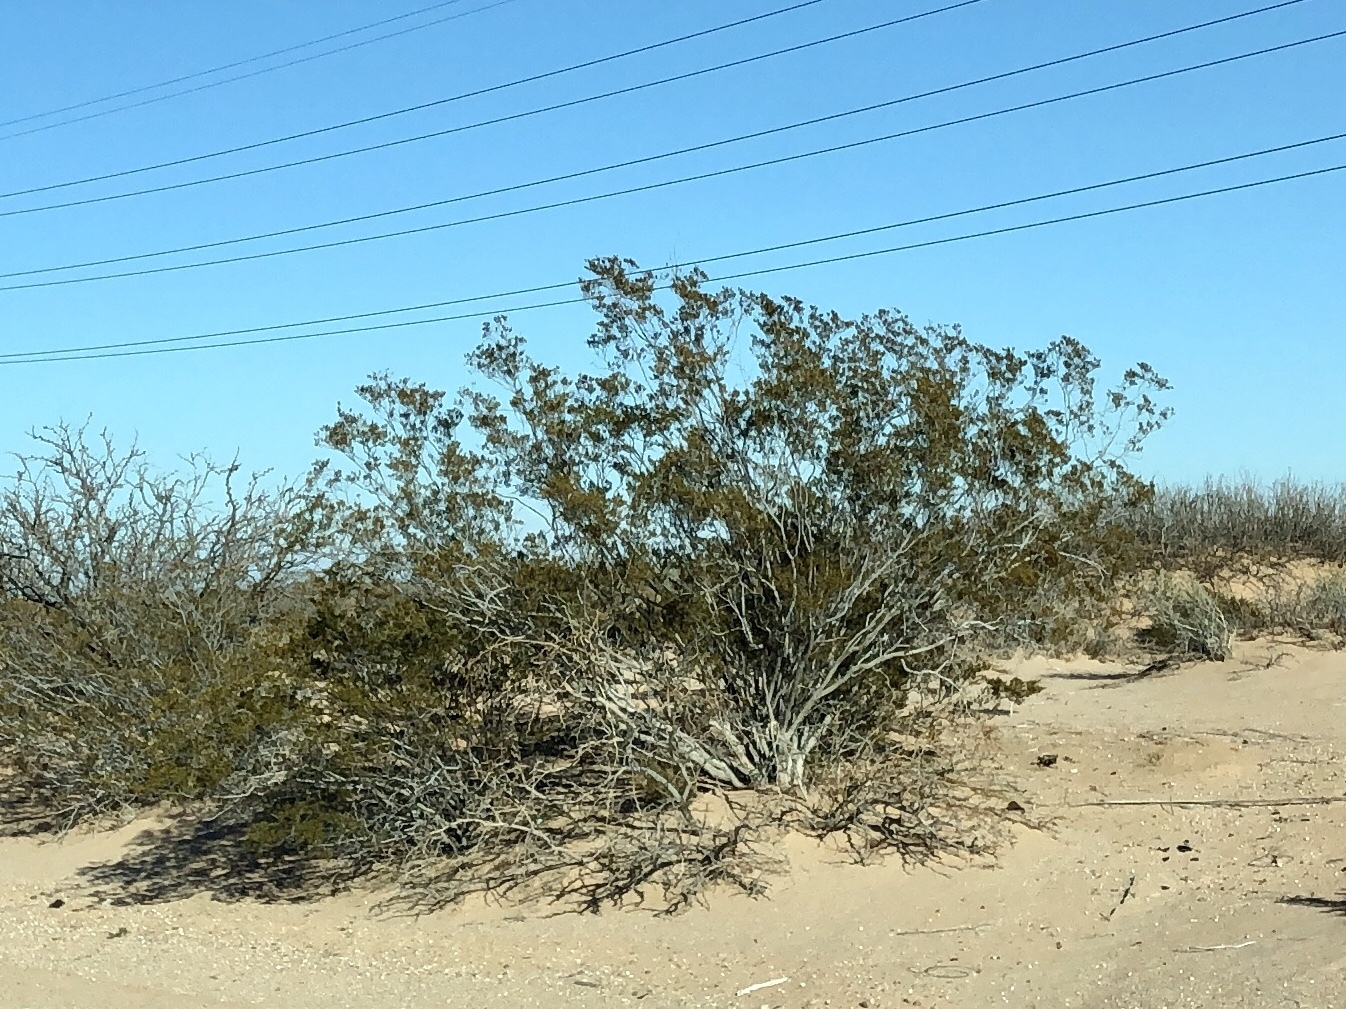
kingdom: Plantae
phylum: Tracheophyta
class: Magnoliopsida
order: Zygophyllales
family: Zygophyllaceae
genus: Larrea
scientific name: Larrea tridentata
